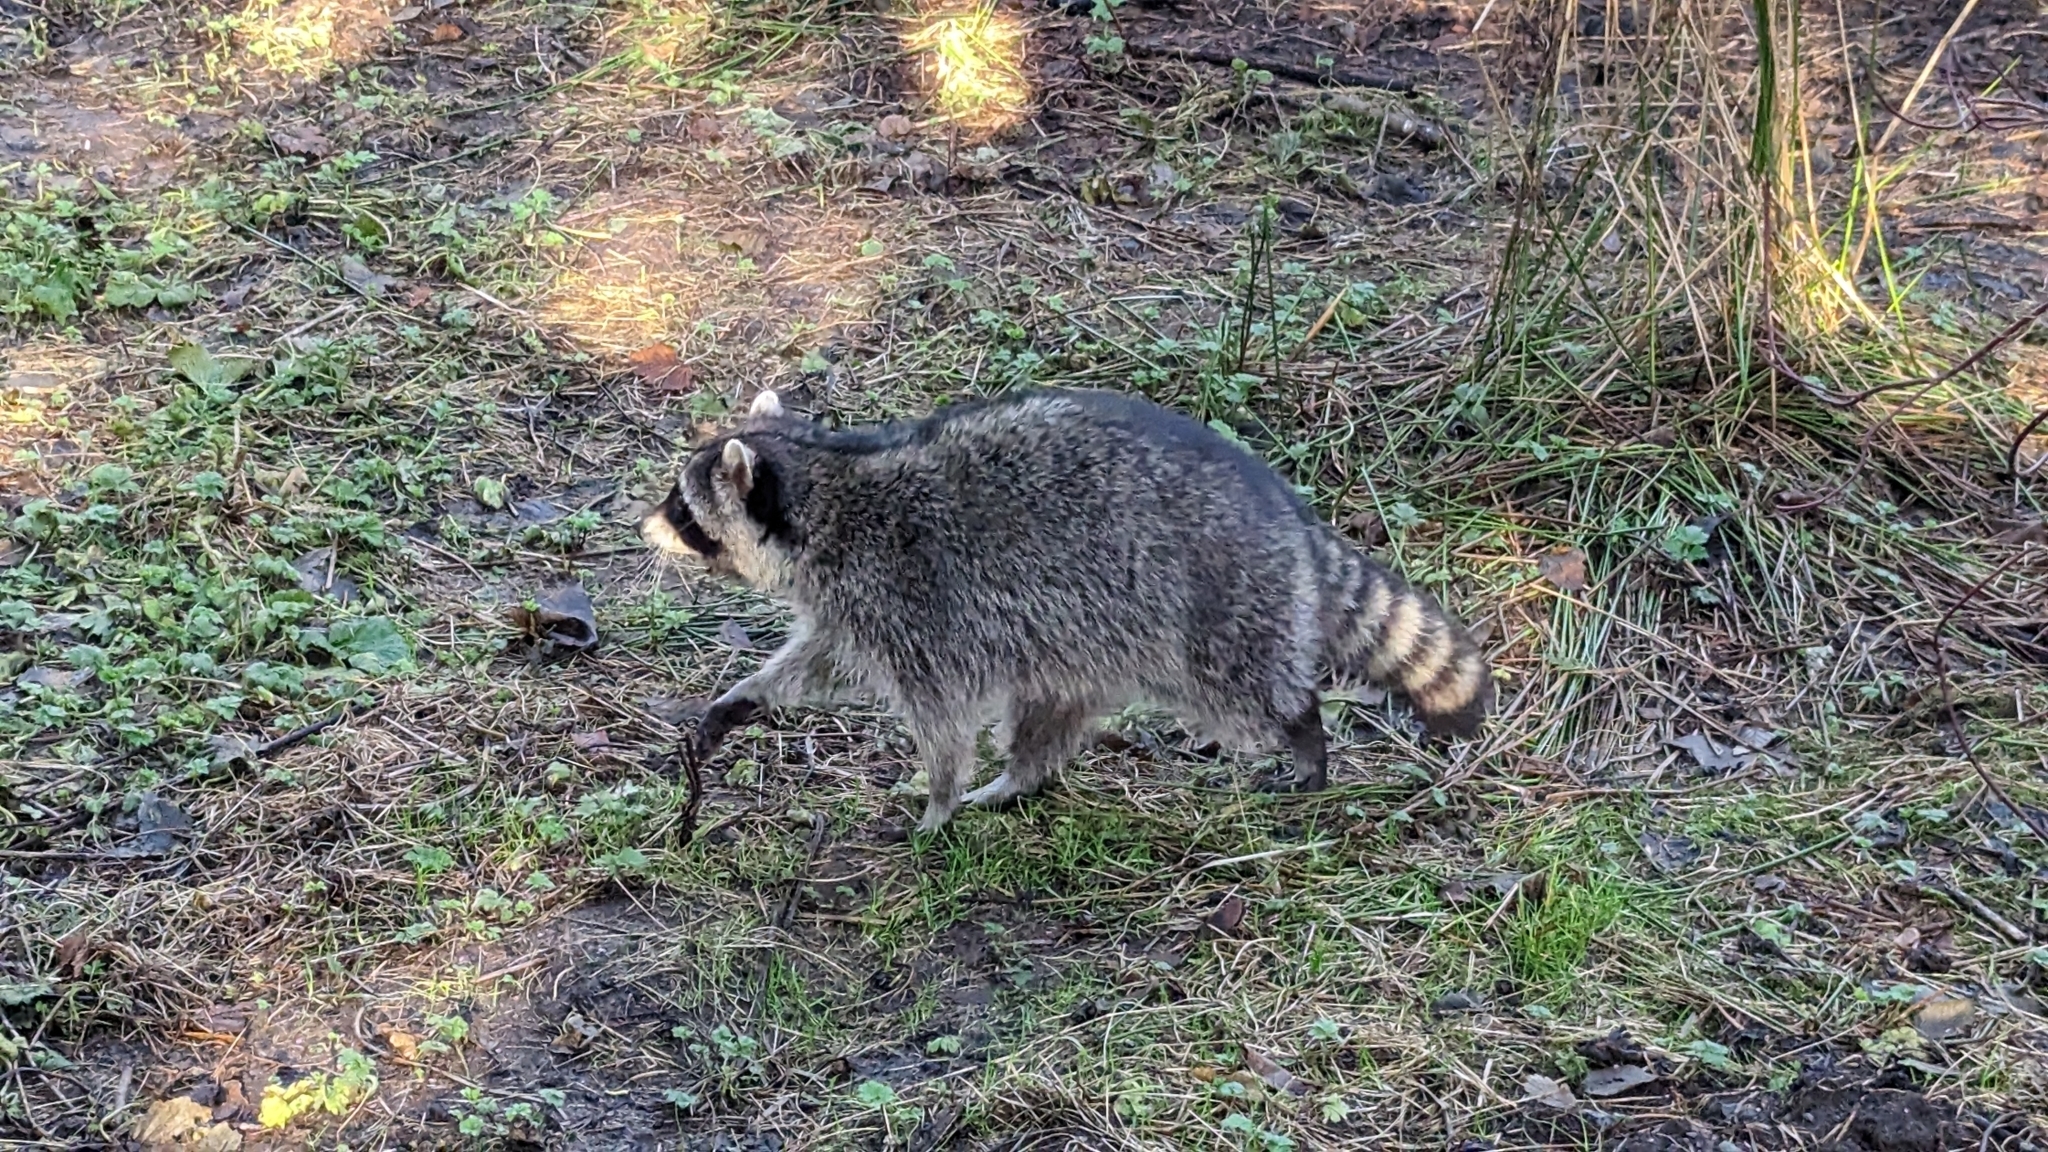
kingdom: Animalia
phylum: Chordata
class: Mammalia
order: Carnivora
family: Procyonidae
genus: Procyon
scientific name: Procyon lotor
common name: Raccoon
